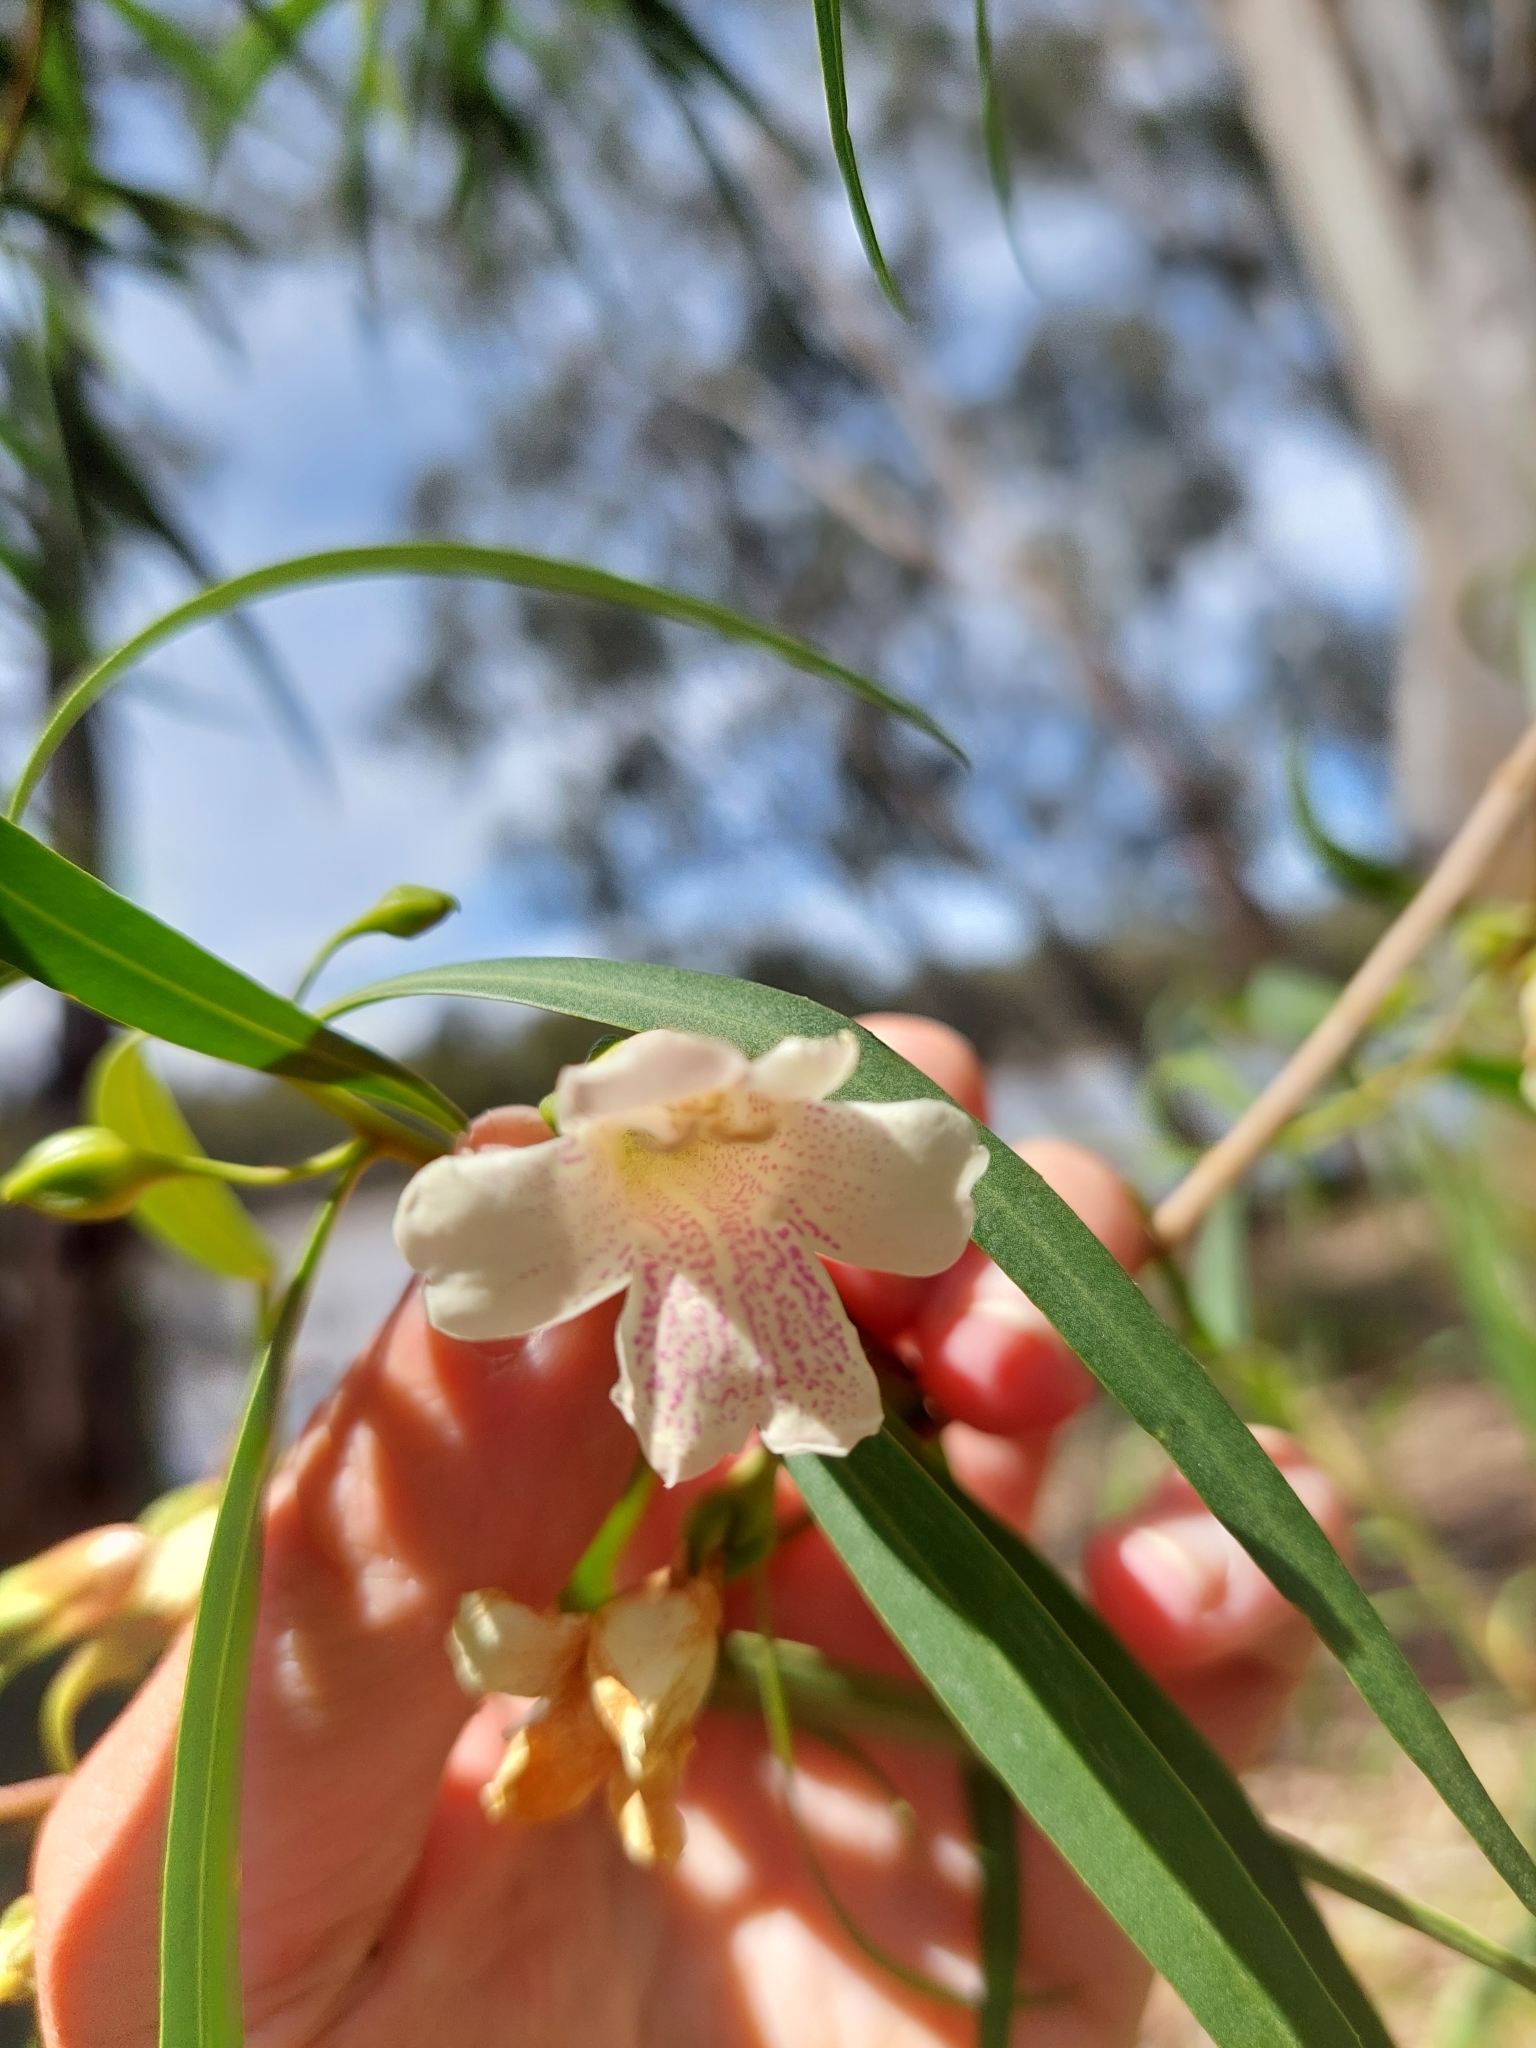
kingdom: Plantae
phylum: Tracheophyta
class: Magnoliopsida
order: Lamiales
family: Scrophulariaceae
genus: Eremophila
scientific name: Eremophila bignoniiflora
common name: Bignonia emu-bush
